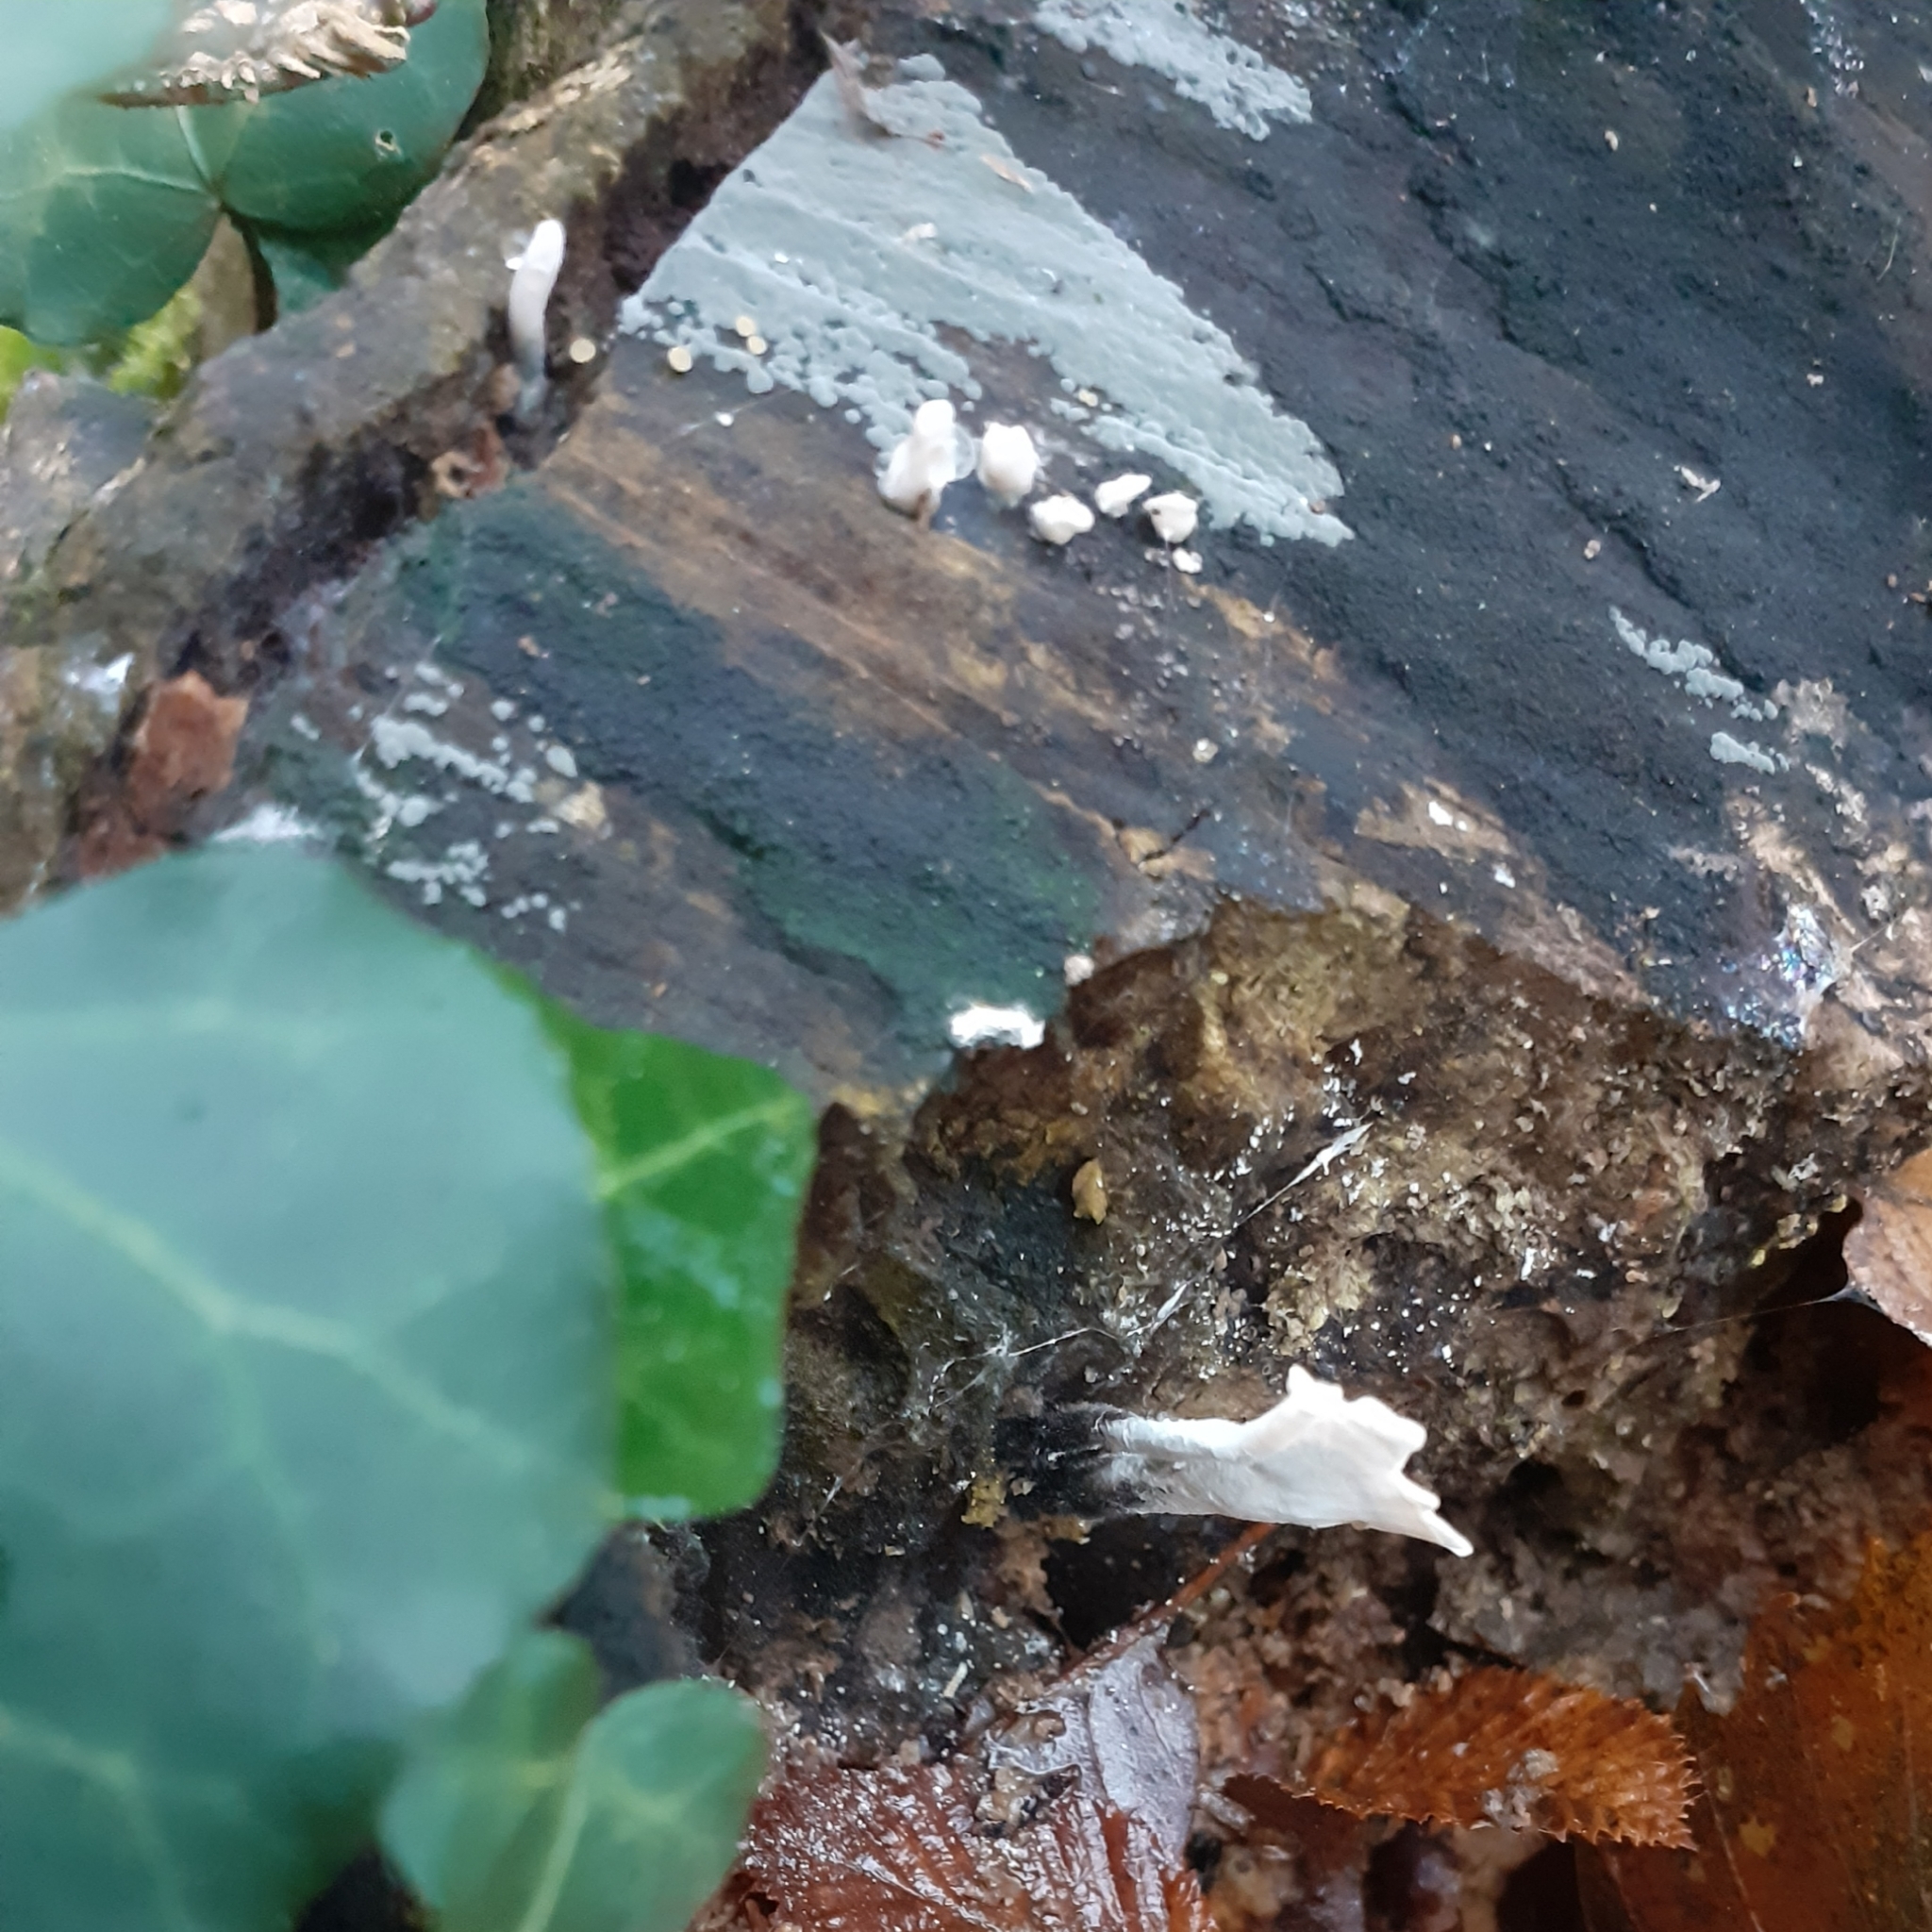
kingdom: Fungi
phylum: Ascomycota
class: Sordariomycetes
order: Xylariales
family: Xylariaceae
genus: Xylaria
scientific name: Xylaria hypoxylon
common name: Candle-snuff fungus
